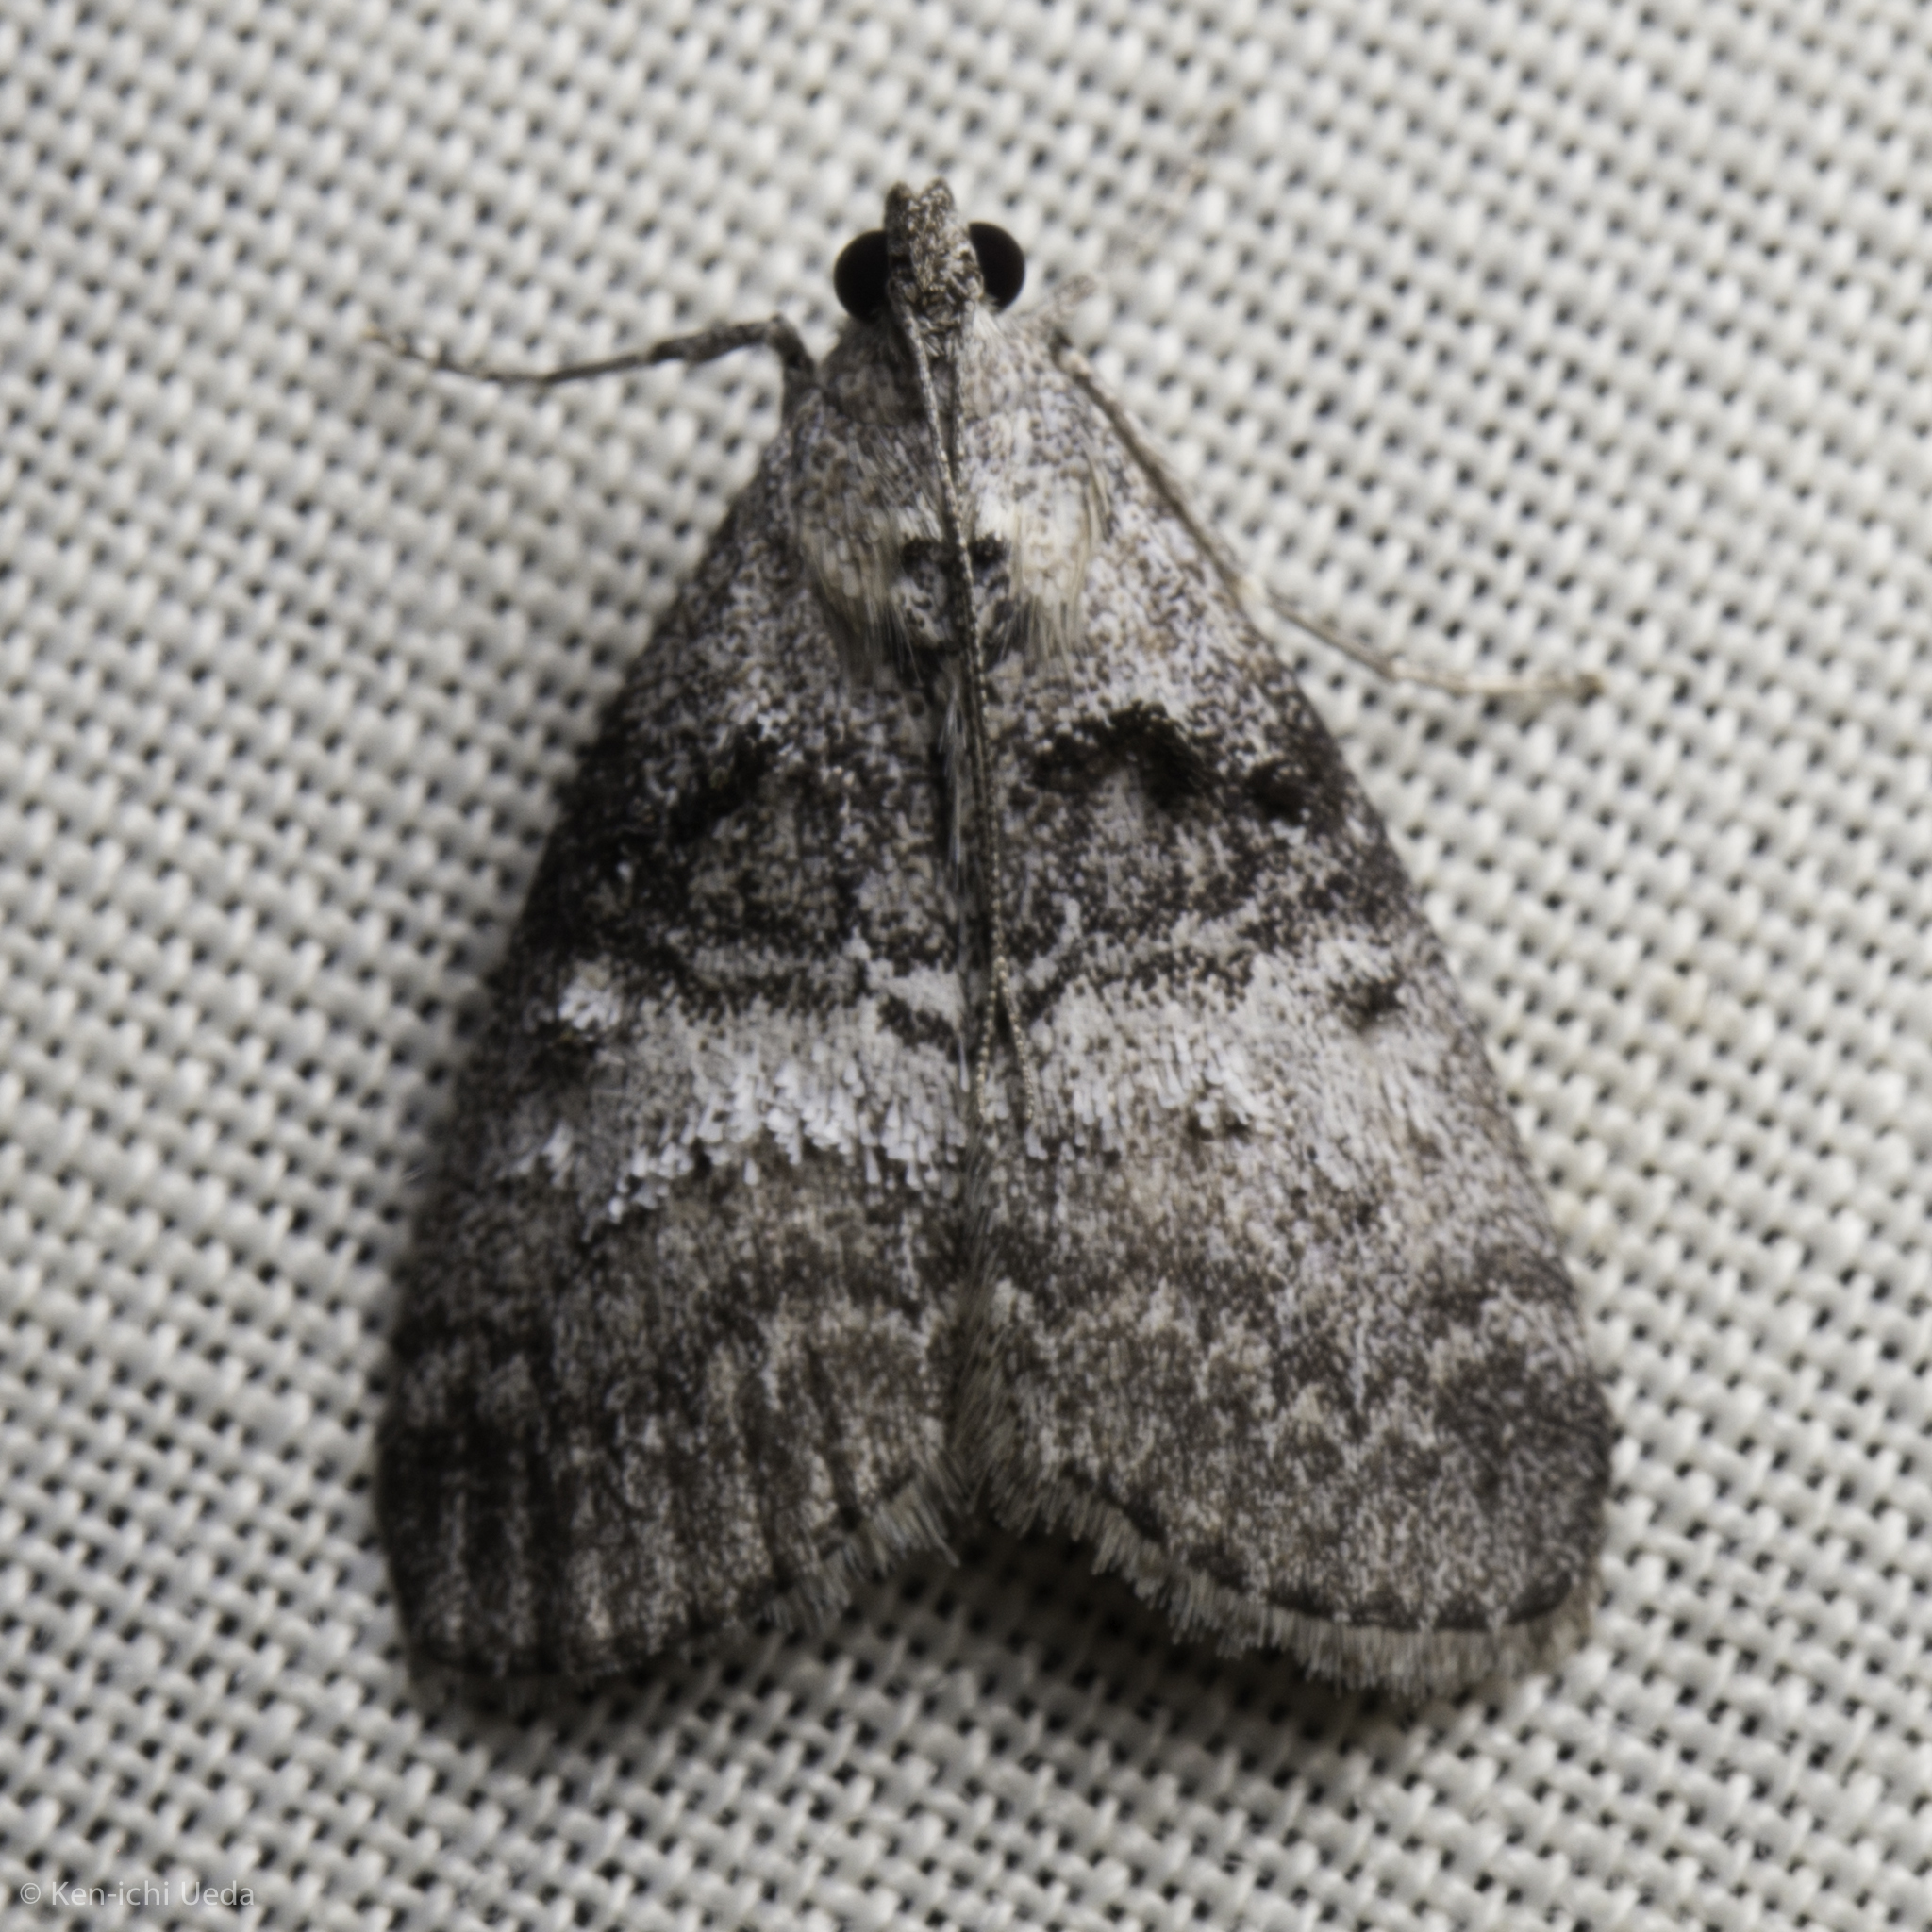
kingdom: Animalia
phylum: Arthropoda
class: Insecta
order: Lepidoptera
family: Pyralidae
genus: Pococera
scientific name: Pococera asperatella
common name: Maple webworm moth
